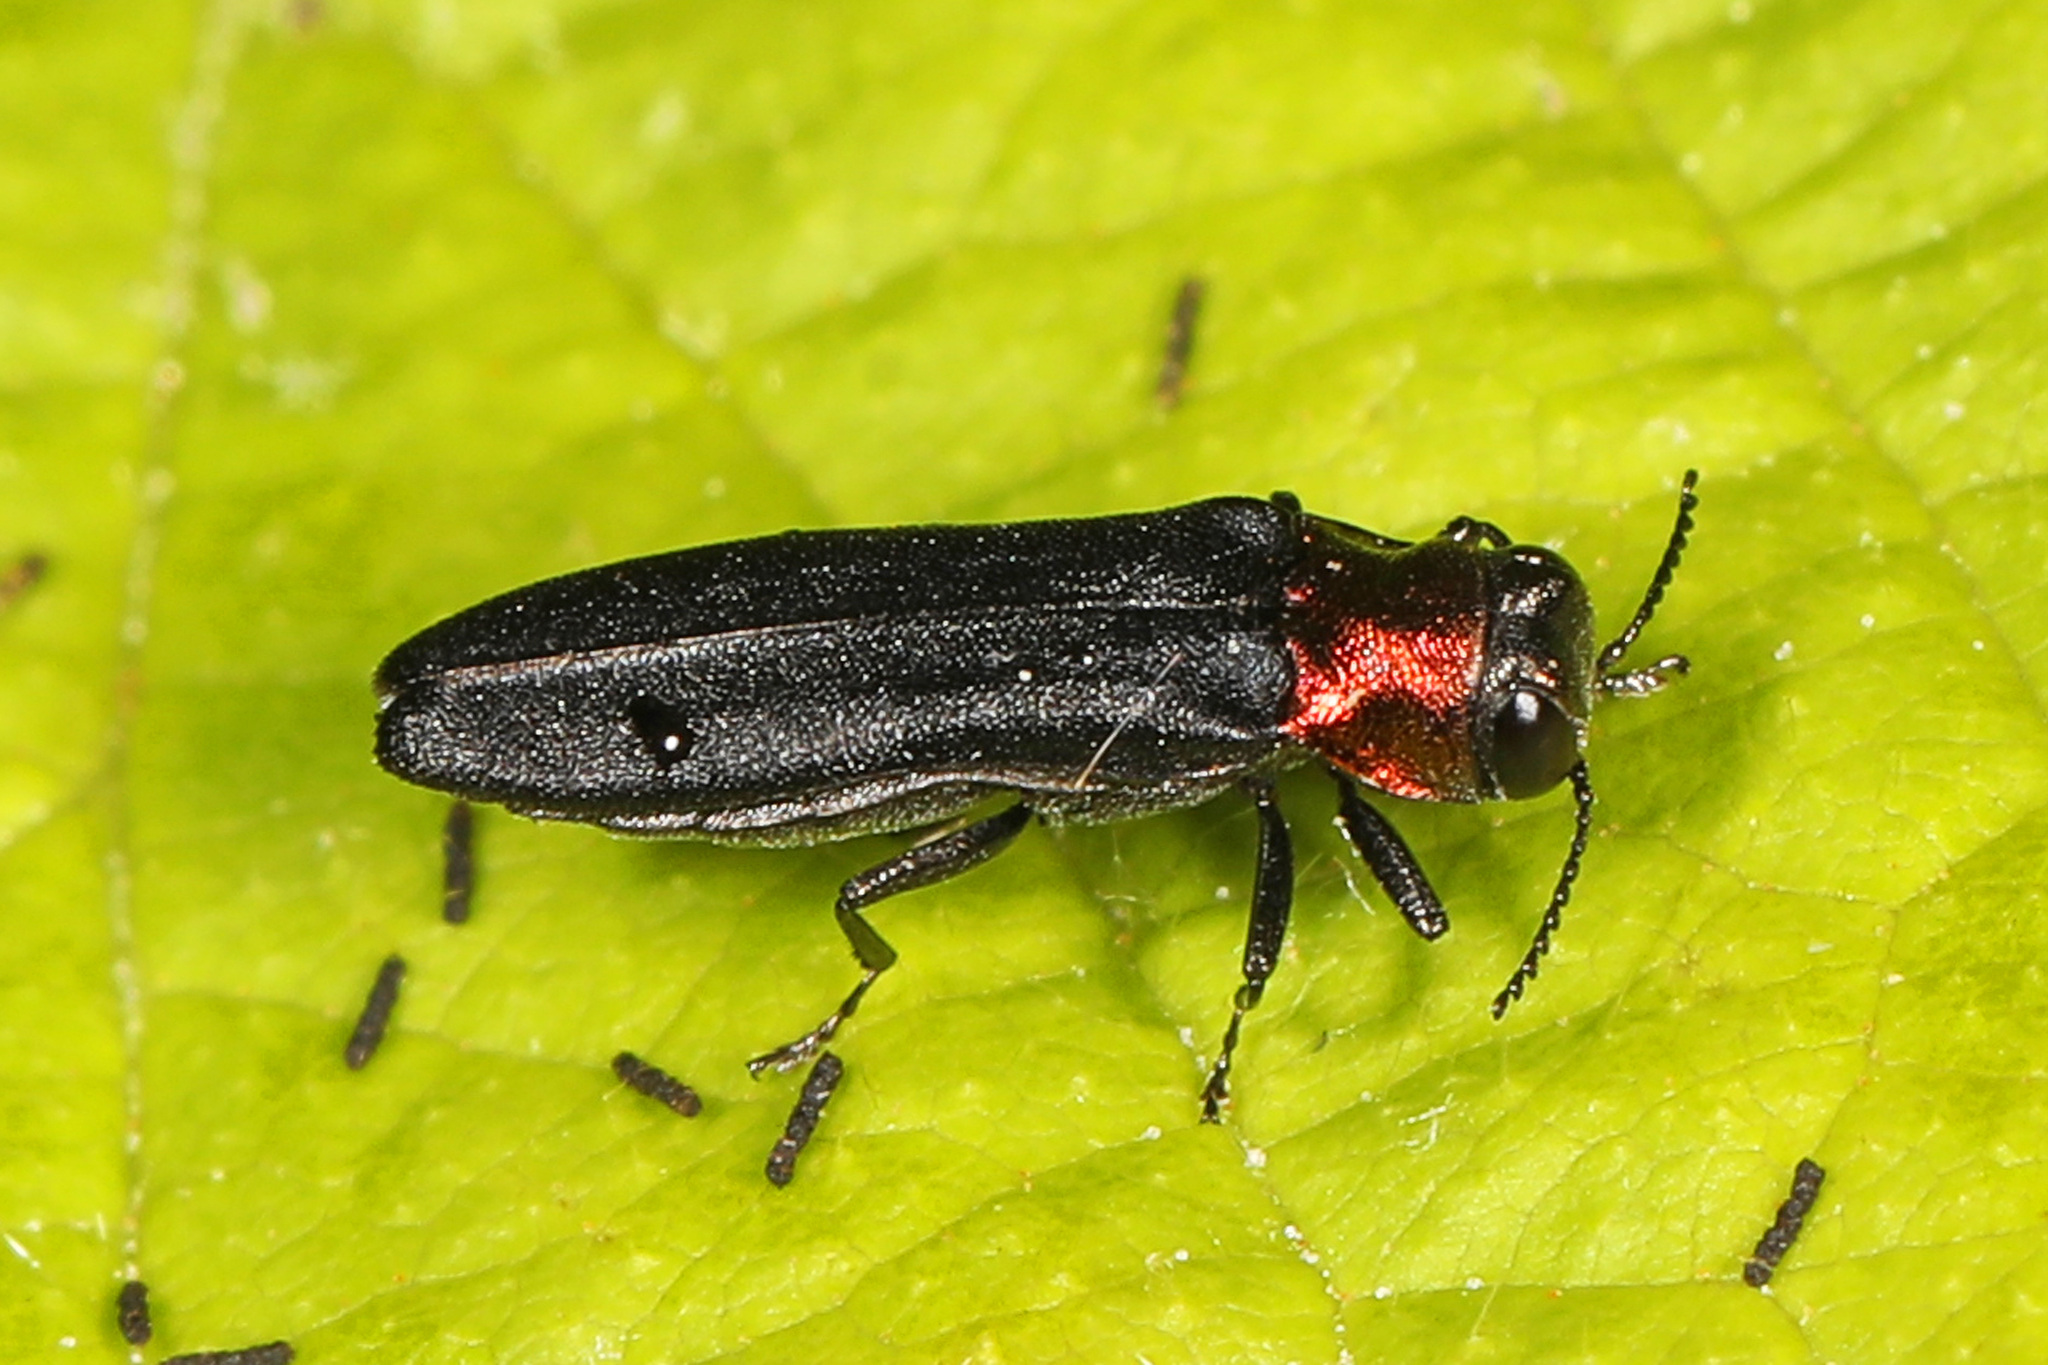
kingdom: Animalia
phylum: Arthropoda
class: Insecta
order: Coleoptera
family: Buprestidae
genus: Agrilus
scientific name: Agrilus ruficollis
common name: Red-necked cane borer beetle
